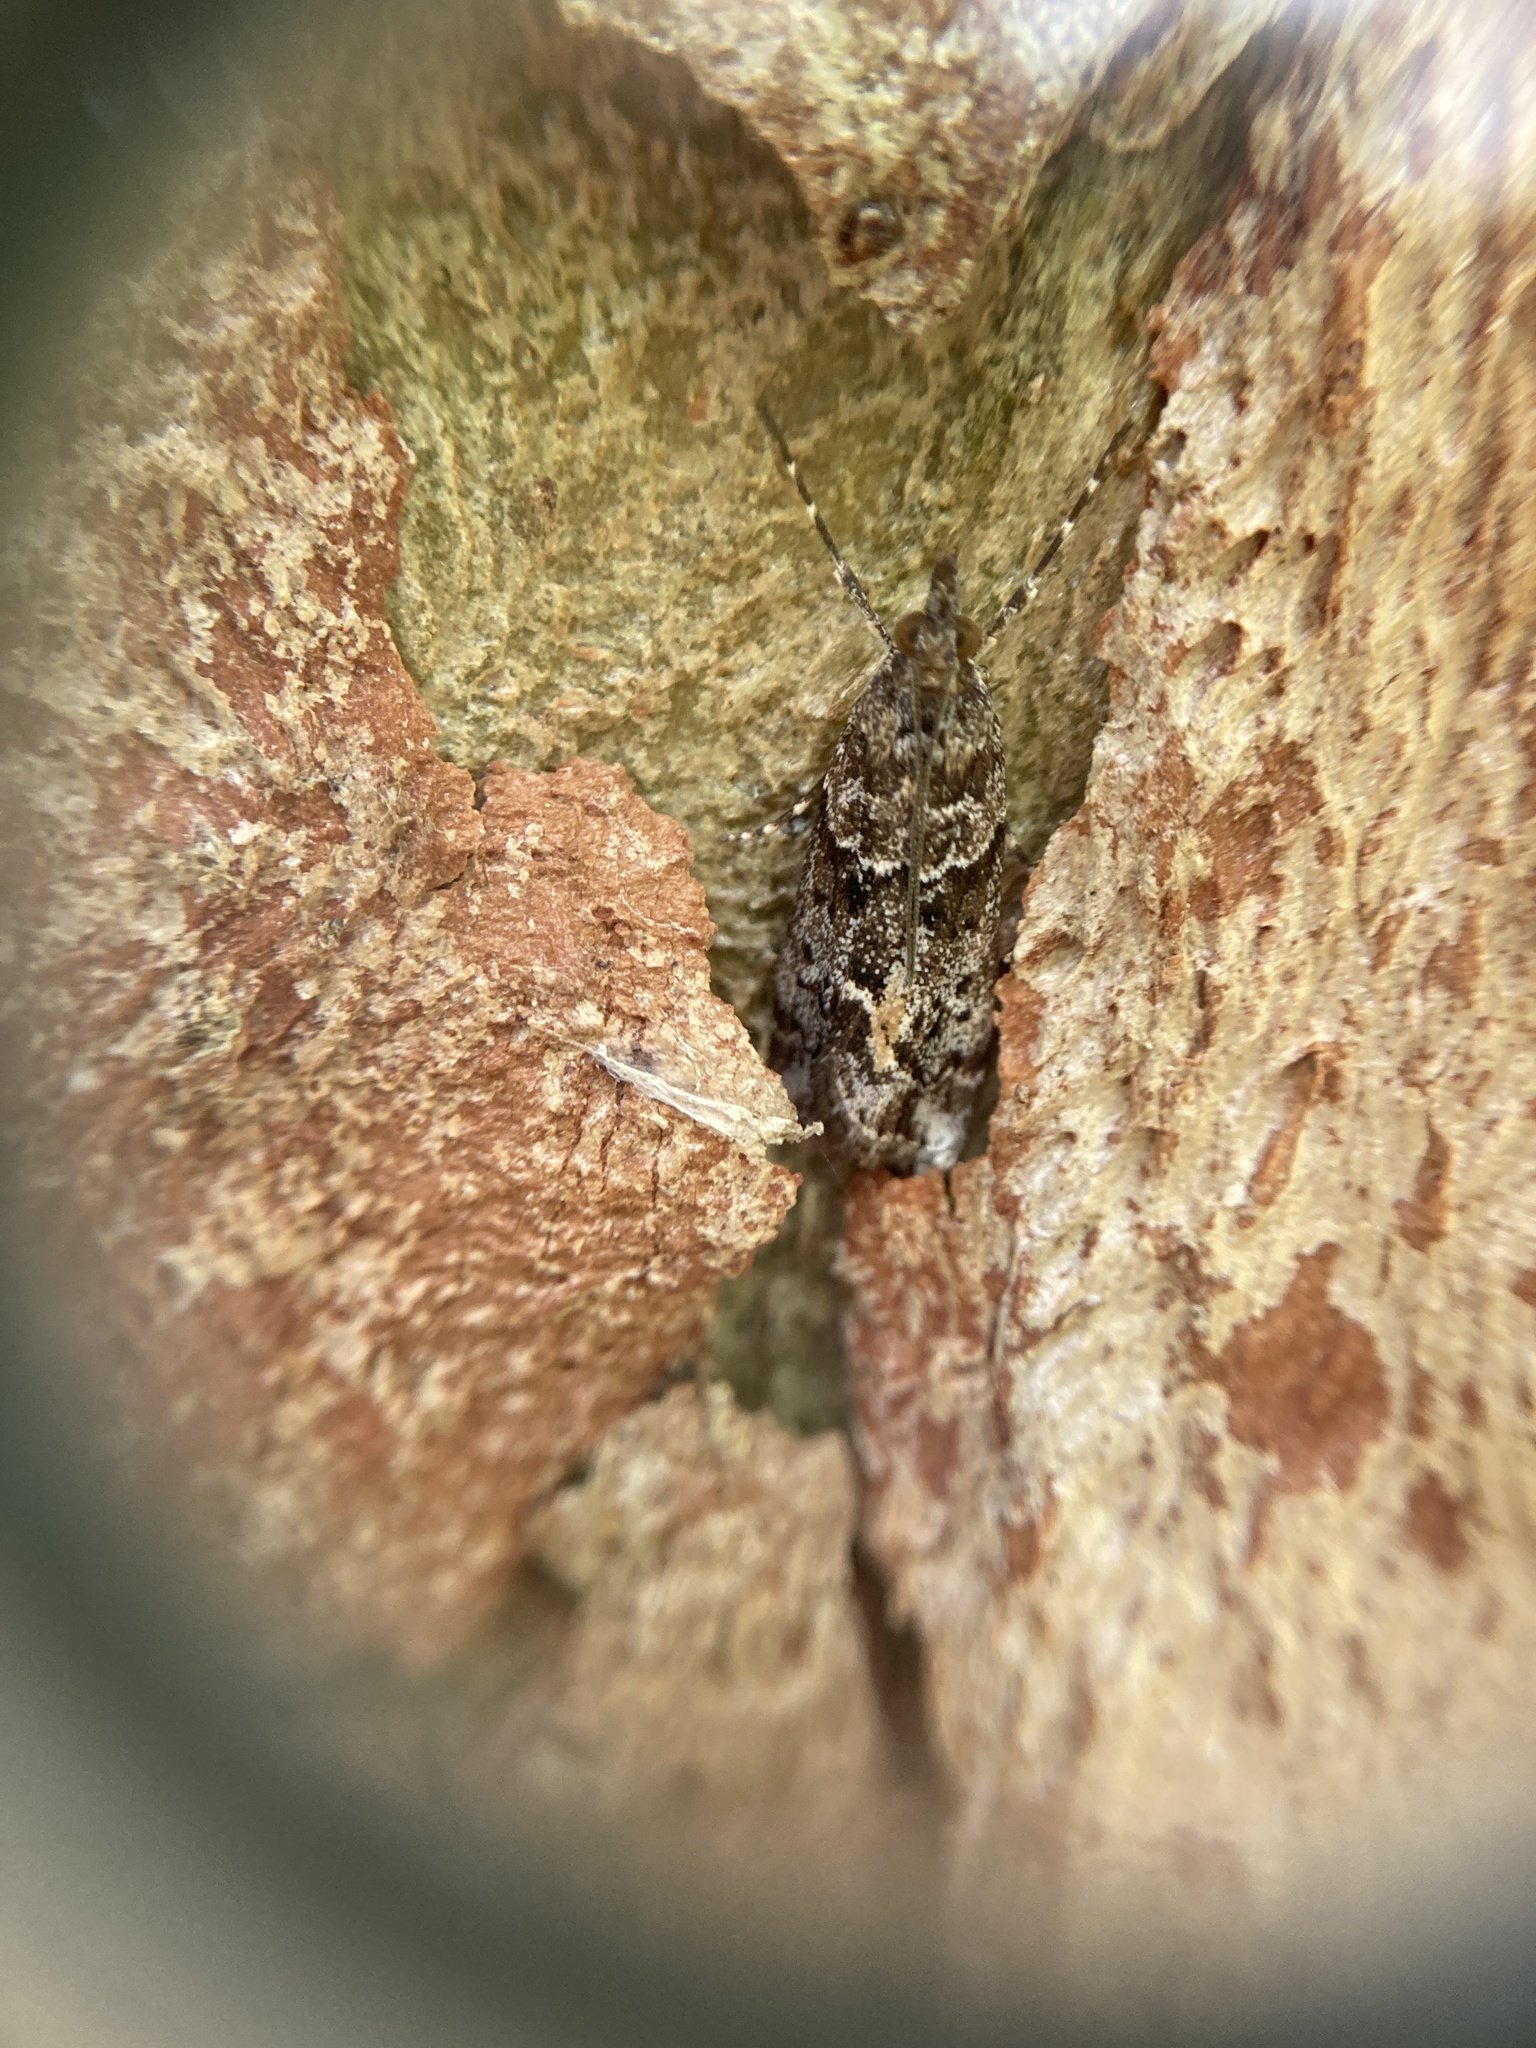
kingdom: Animalia
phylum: Arthropoda
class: Insecta
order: Lepidoptera
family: Crambidae
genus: Eudonia
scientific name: Eudonia submarginalis
